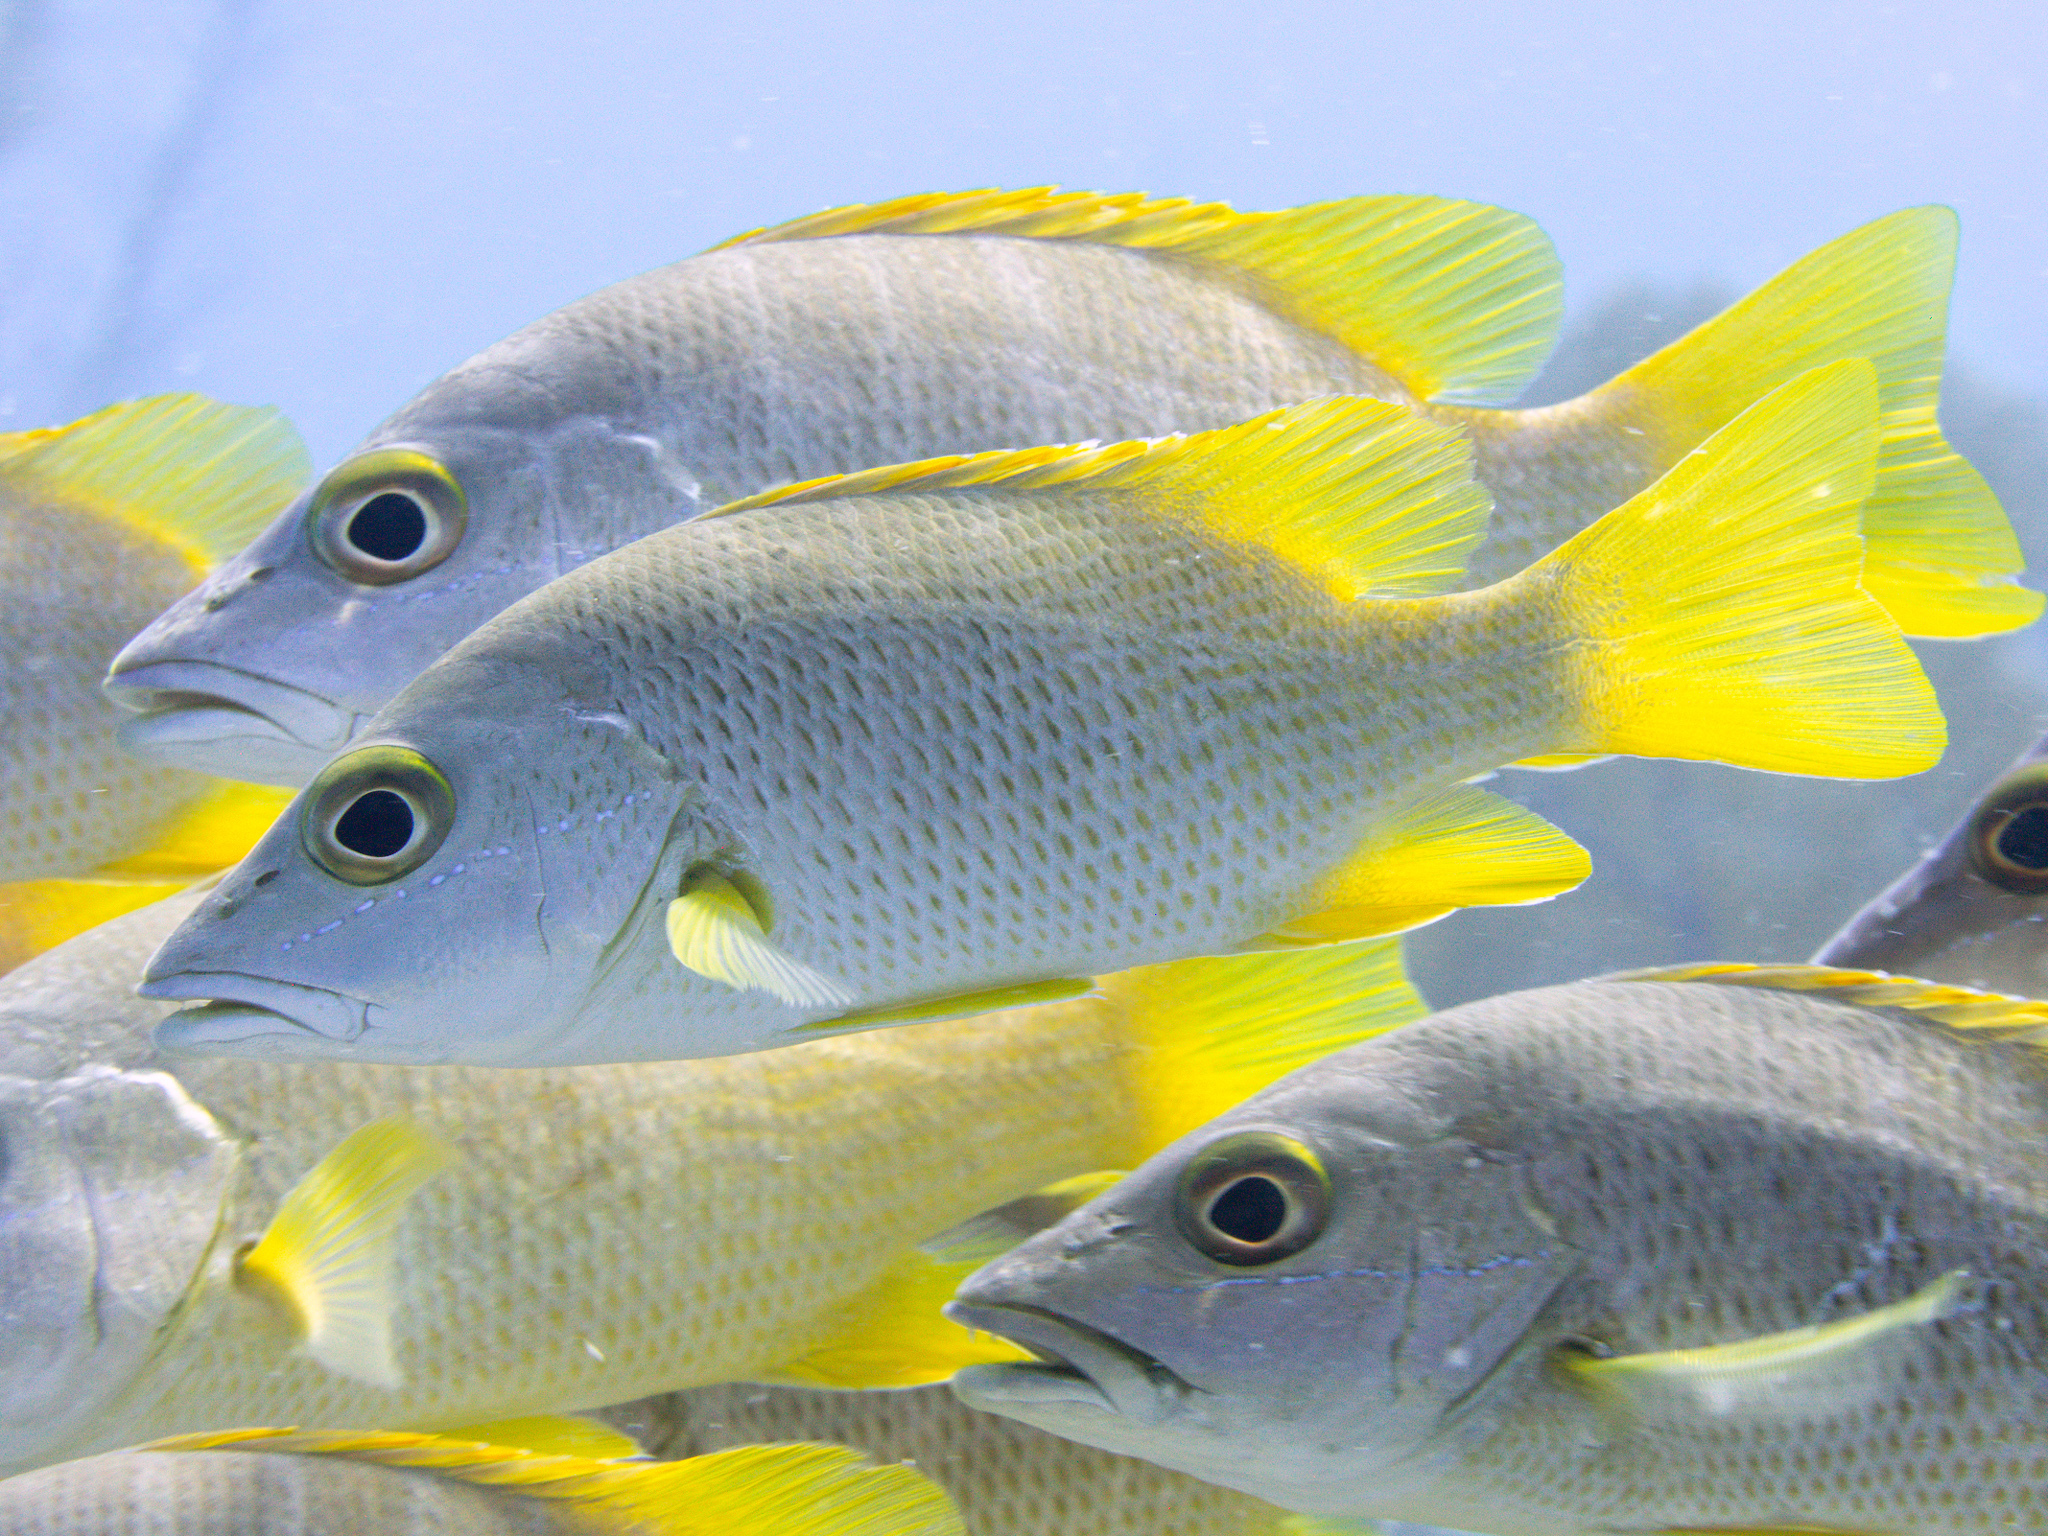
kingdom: Animalia
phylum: Chordata
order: Perciformes
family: Lutjanidae
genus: Lutjanus
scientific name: Lutjanus apodus
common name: Schoolmaster
